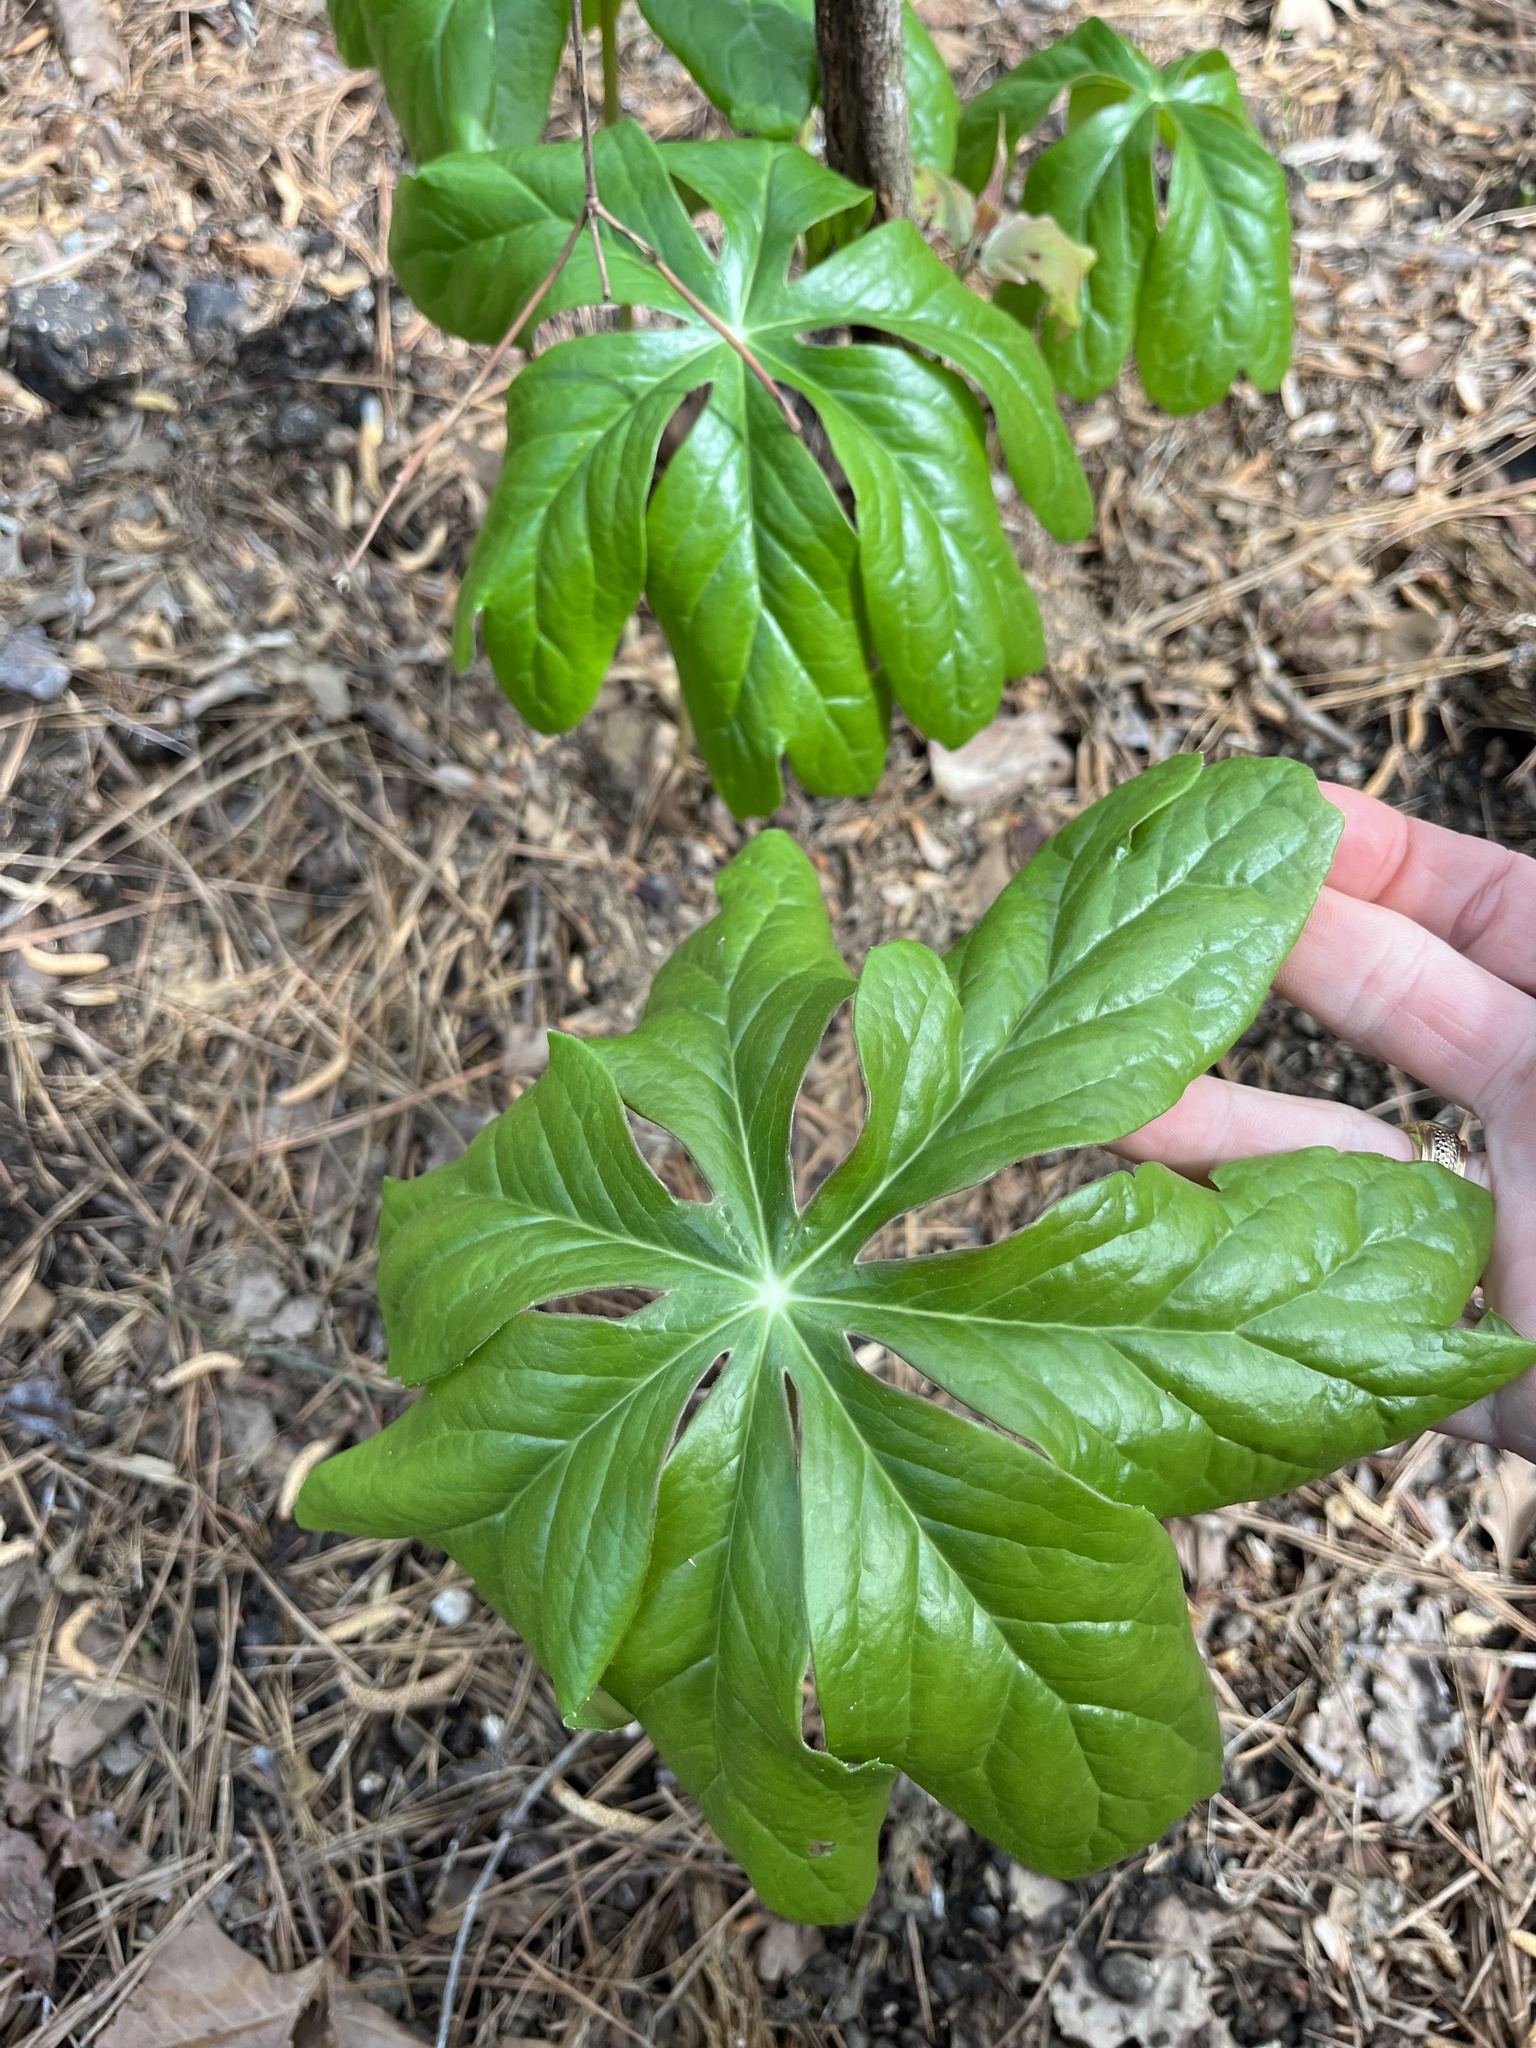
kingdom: Plantae
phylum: Tracheophyta
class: Magnoliopsida
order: Ranunculales
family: Berberidaceae
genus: Podophyllum
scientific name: Podophyllum peltatum
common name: Wild mandrake
